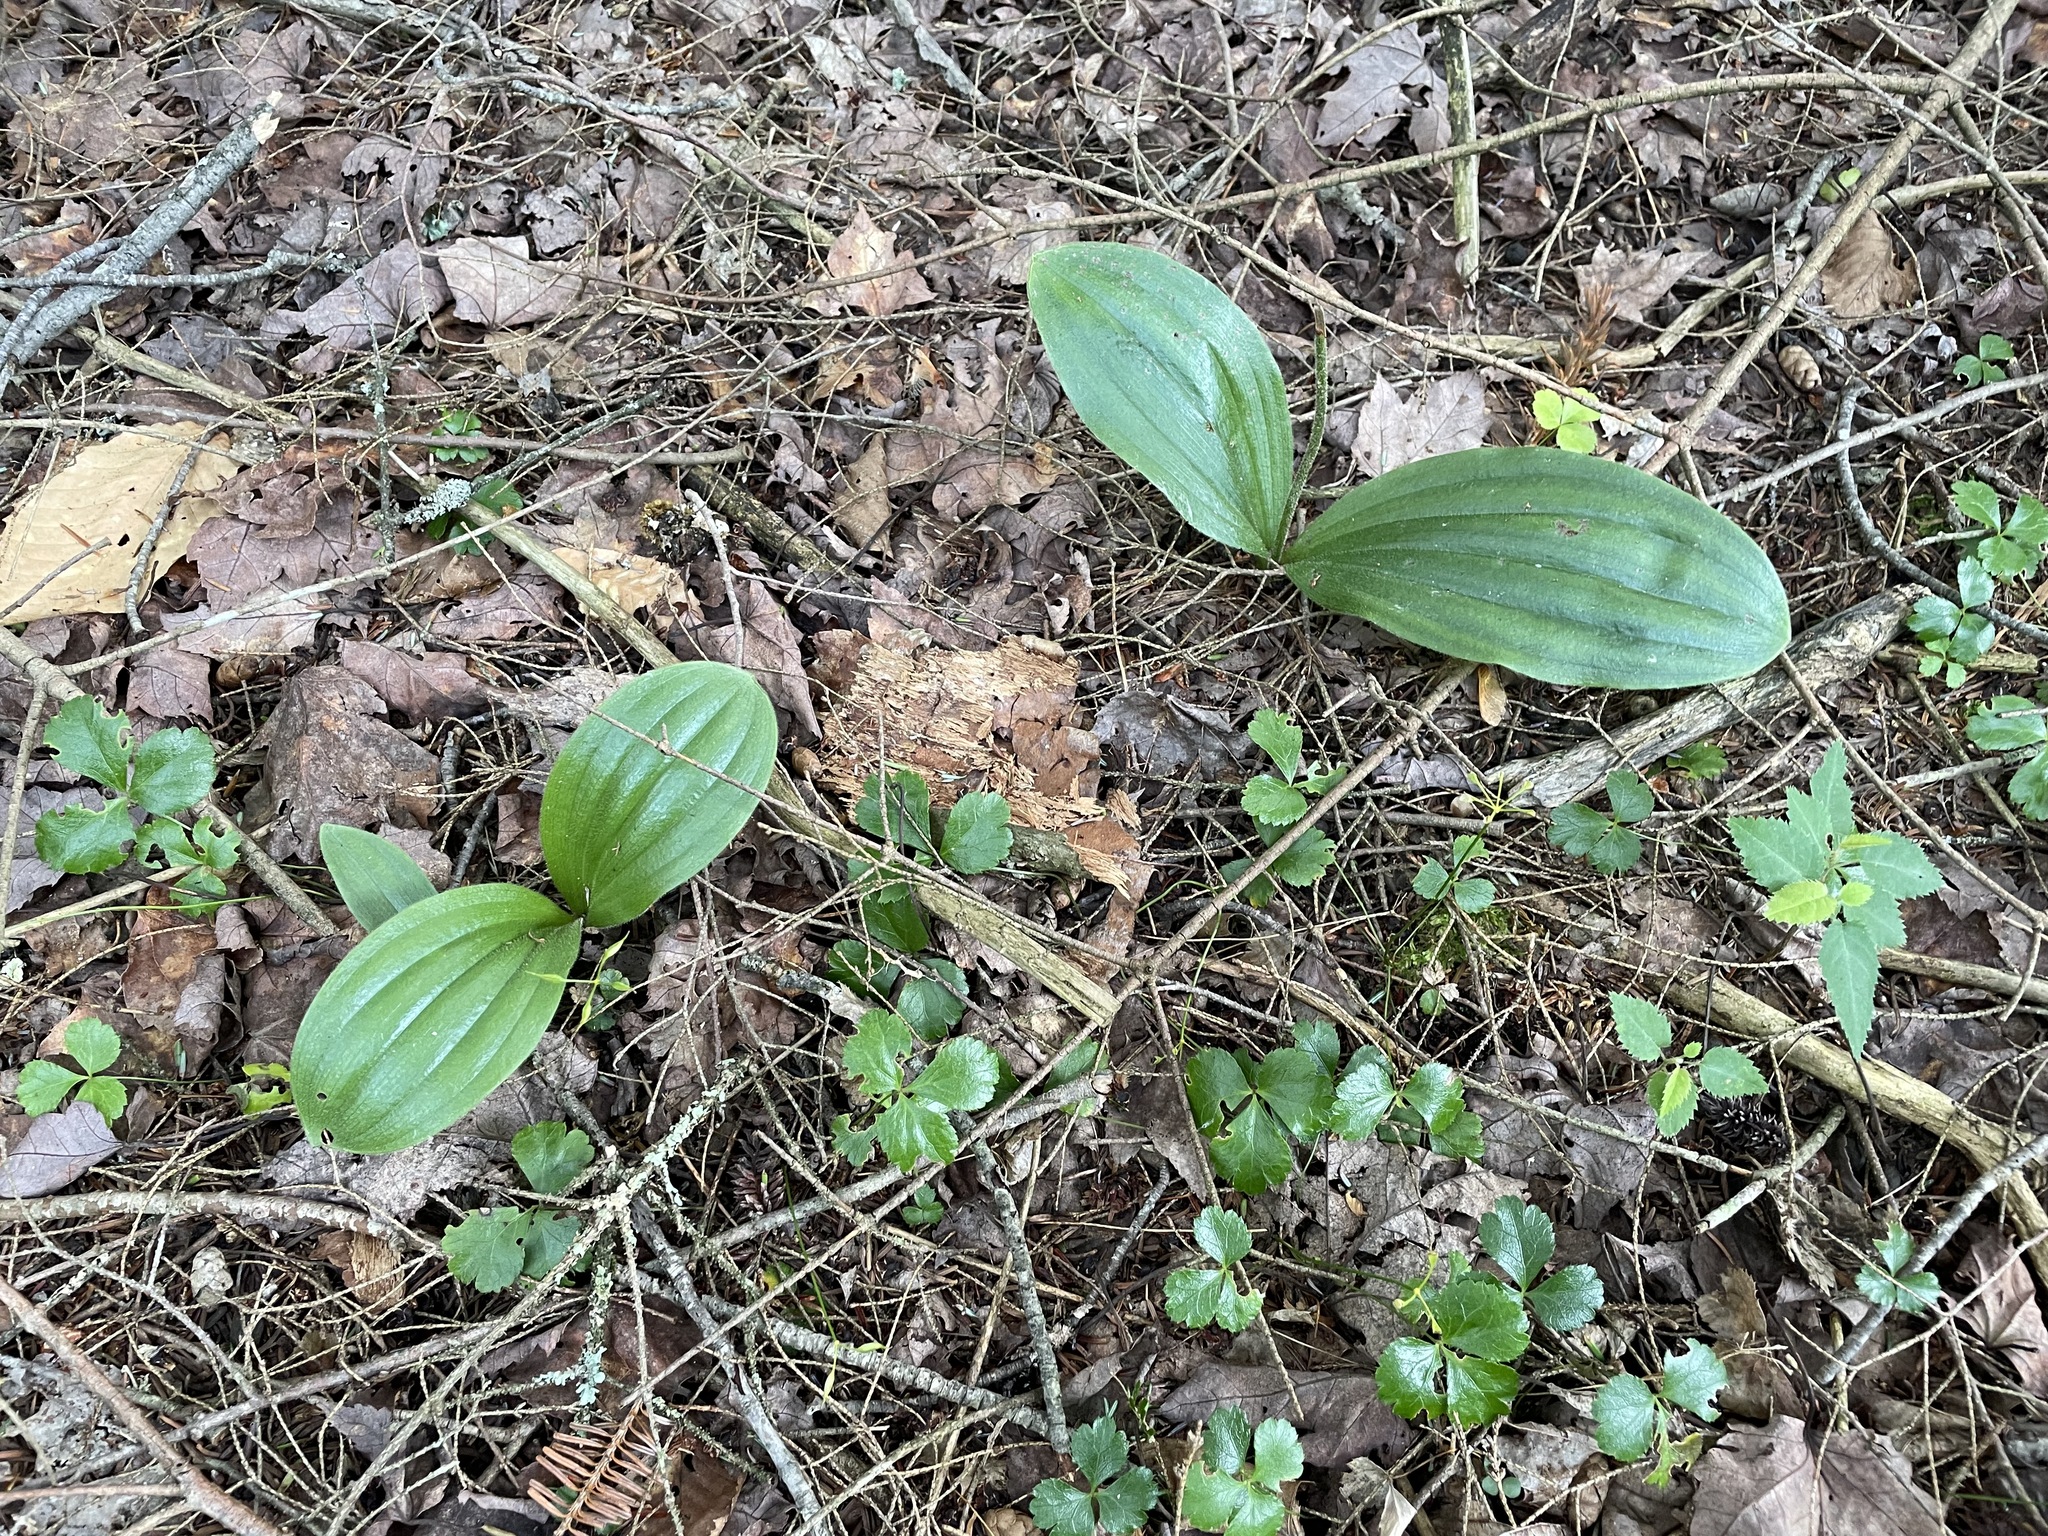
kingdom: Plantae
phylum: Tracheophyta
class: Liliopsida
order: Asparagales
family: Orchidaceae
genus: Cypripedium
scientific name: Cypripedium acaule
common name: Pink lady's-slipper
